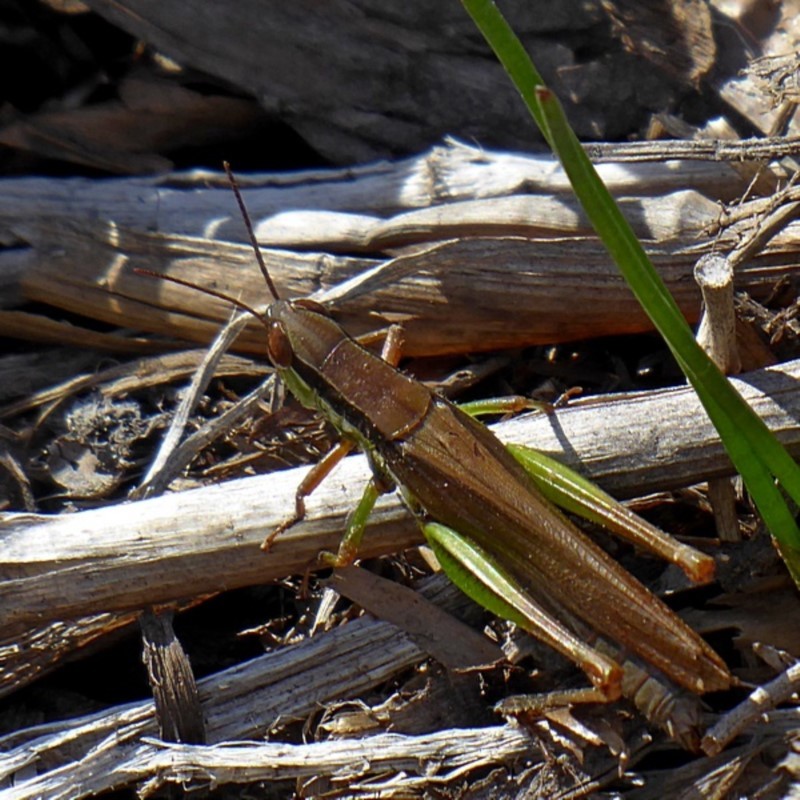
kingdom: Animalia
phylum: Arthropoda
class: Insecta
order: Orthoptera
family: Acrididae
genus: Bermius
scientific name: Bermius brachycerus
